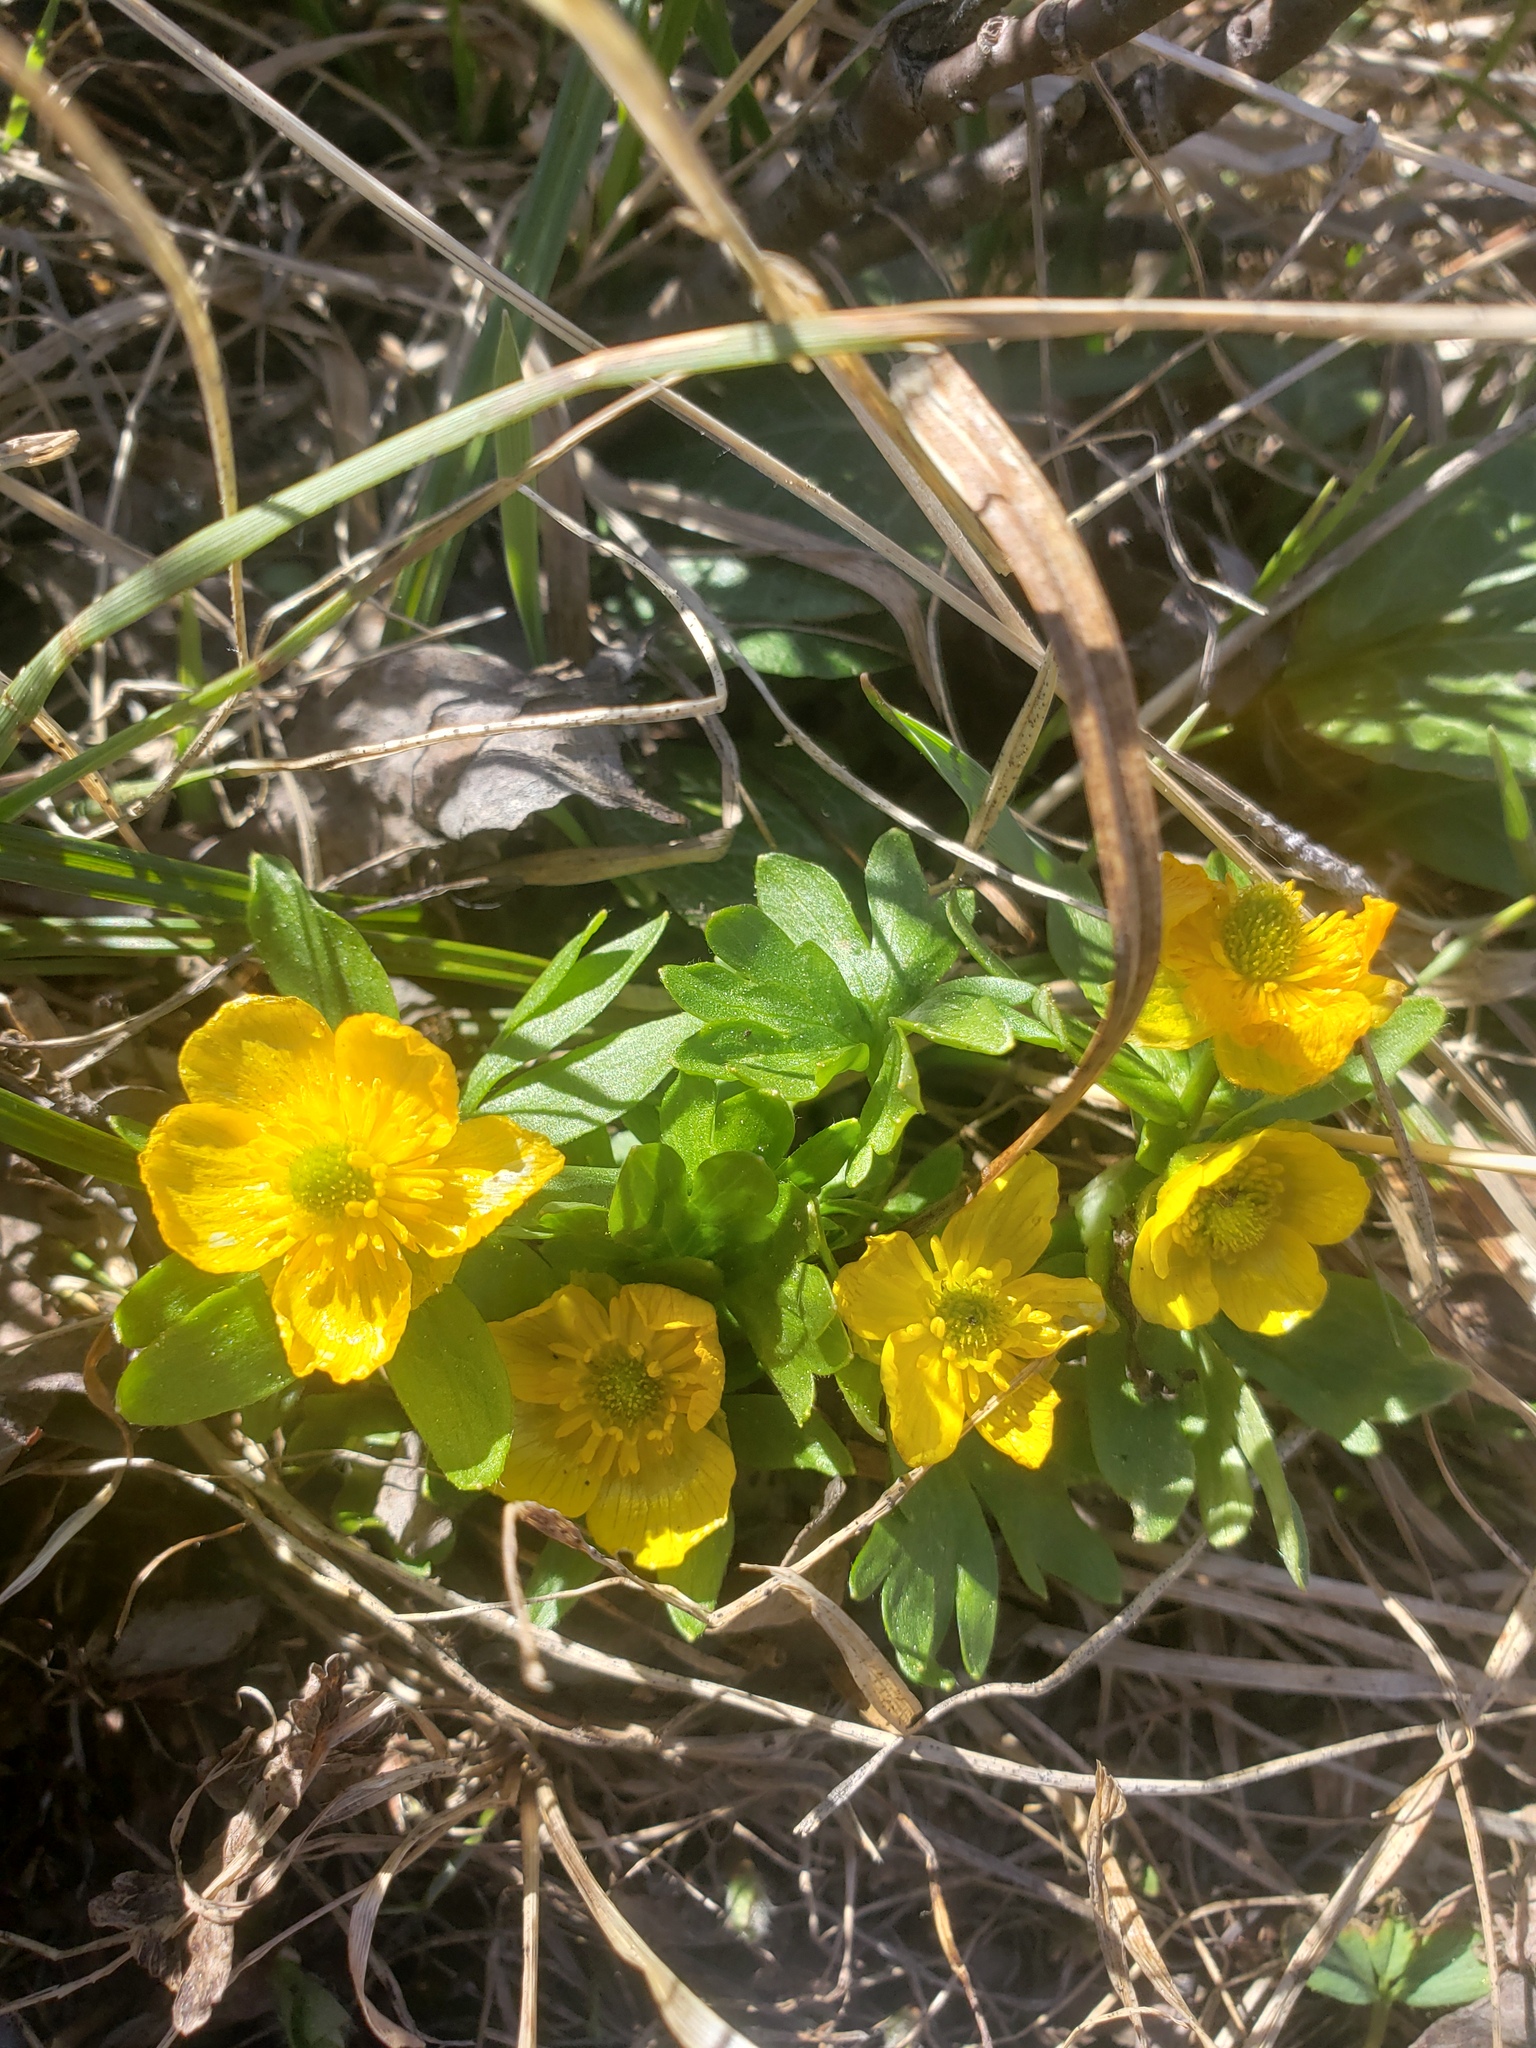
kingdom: Plantae
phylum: Tracheophyta
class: Magnoliopsida
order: Ranunculales
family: Ranunculaceae
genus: Ranunculus
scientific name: Ranunculus eschscholtzii
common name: Eschscholtz's buttercup
